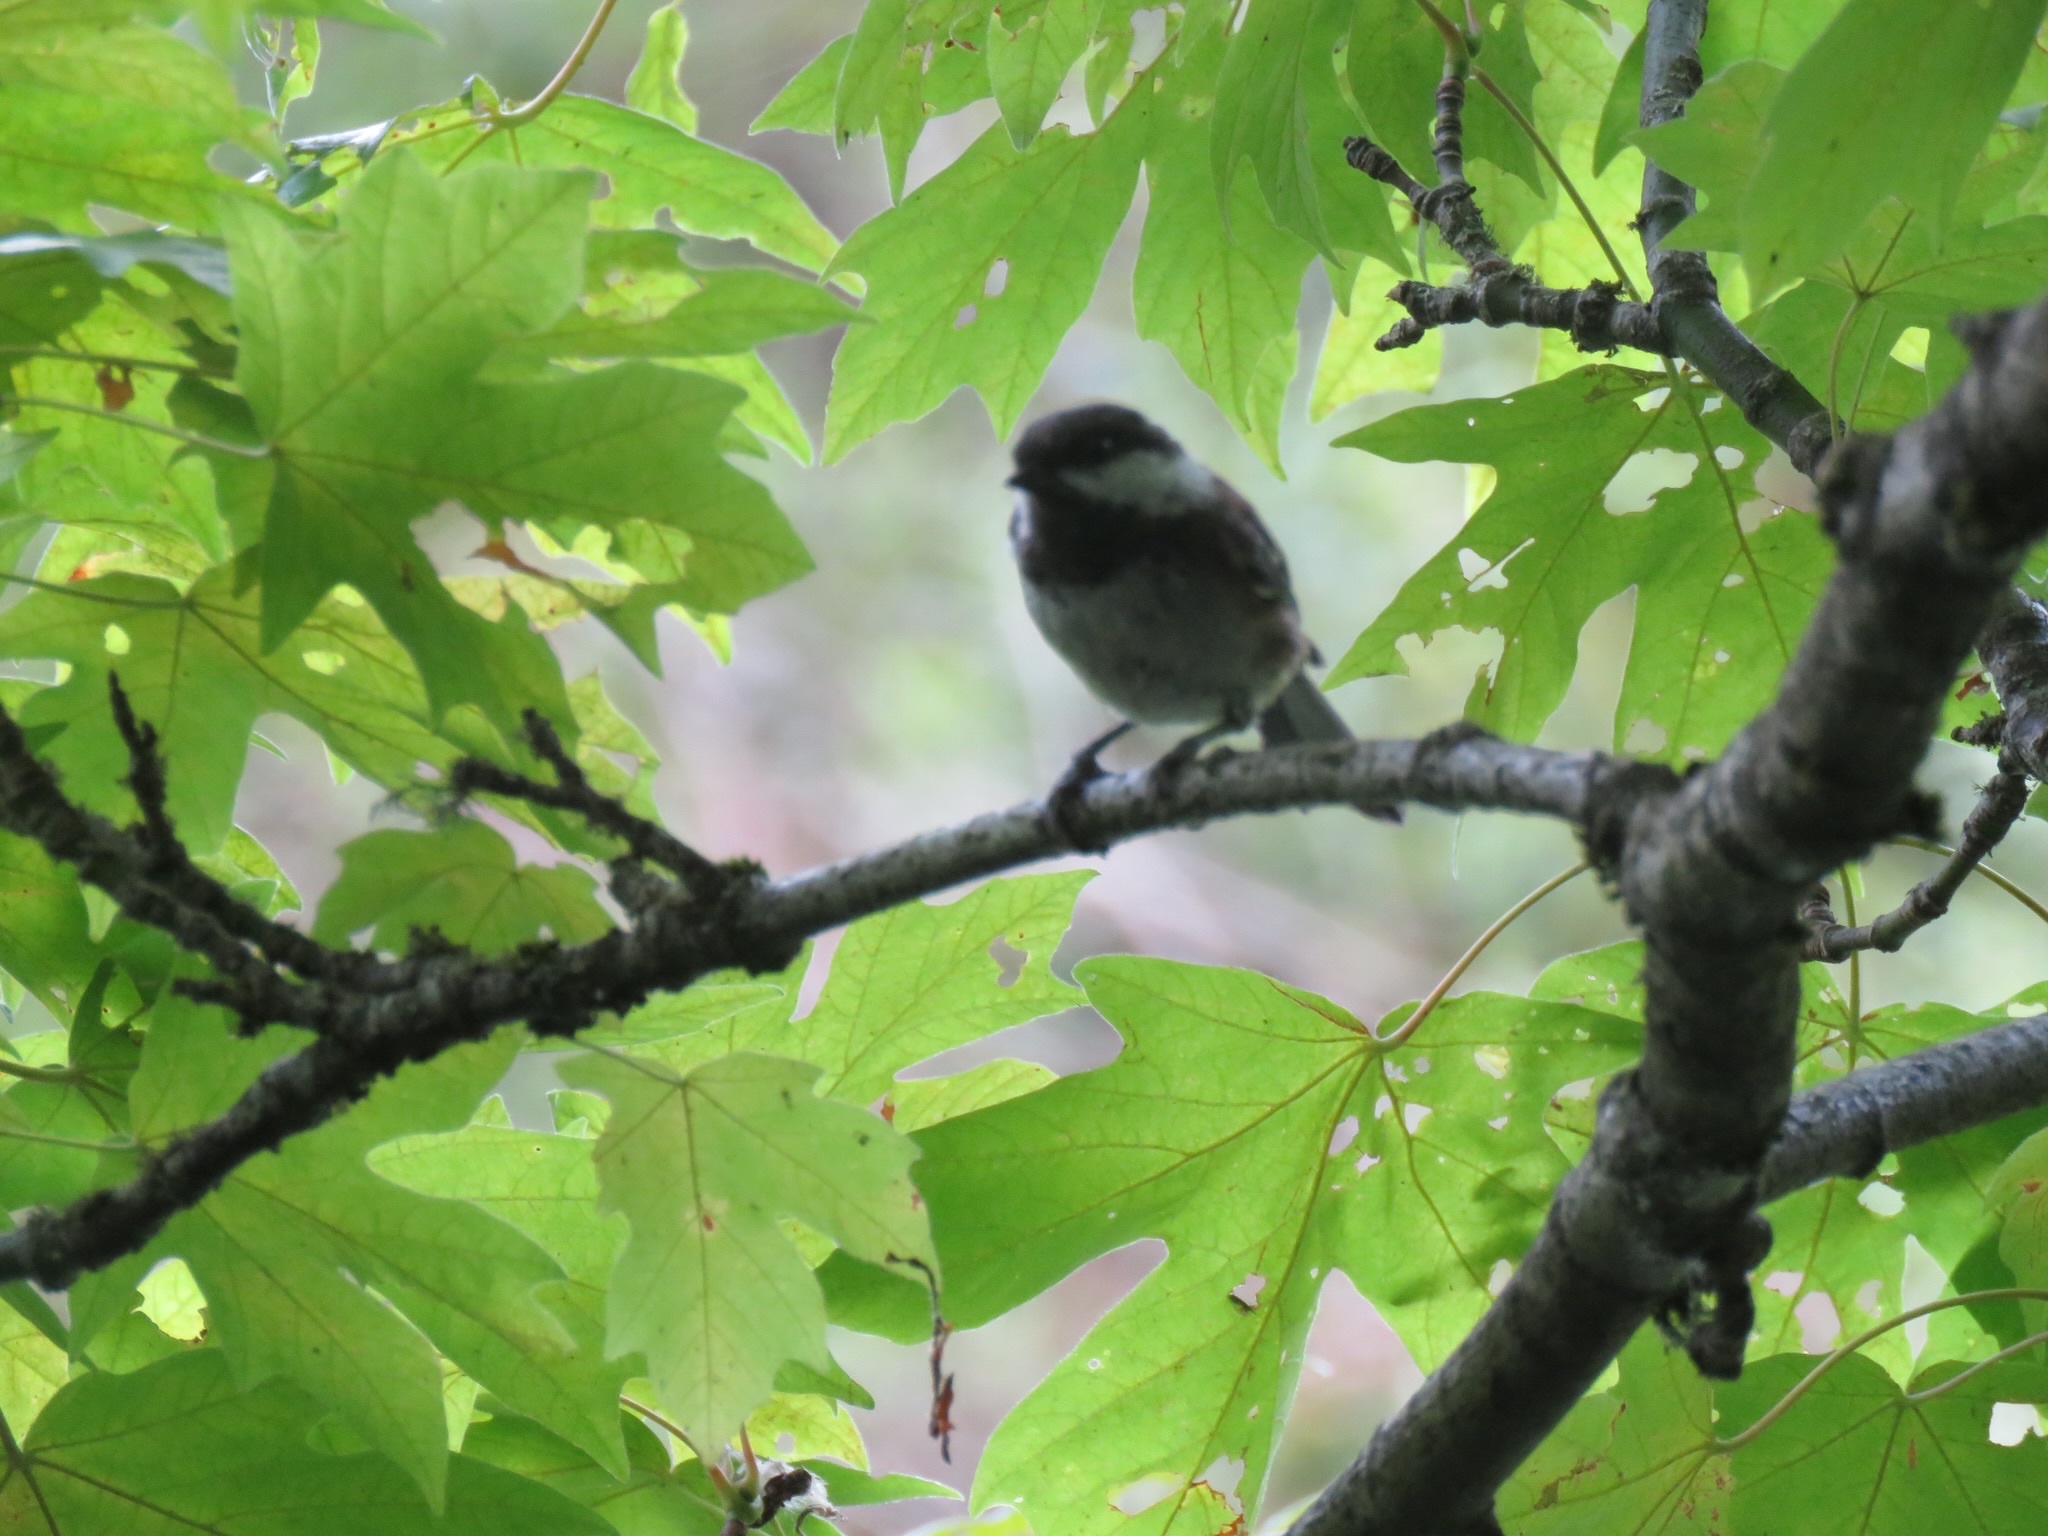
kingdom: Animalia
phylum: Chordata
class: Aves
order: Passeriformes
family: Paridae
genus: Poecile
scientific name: Poecile rufescens
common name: Chestnut-backed chickadee
